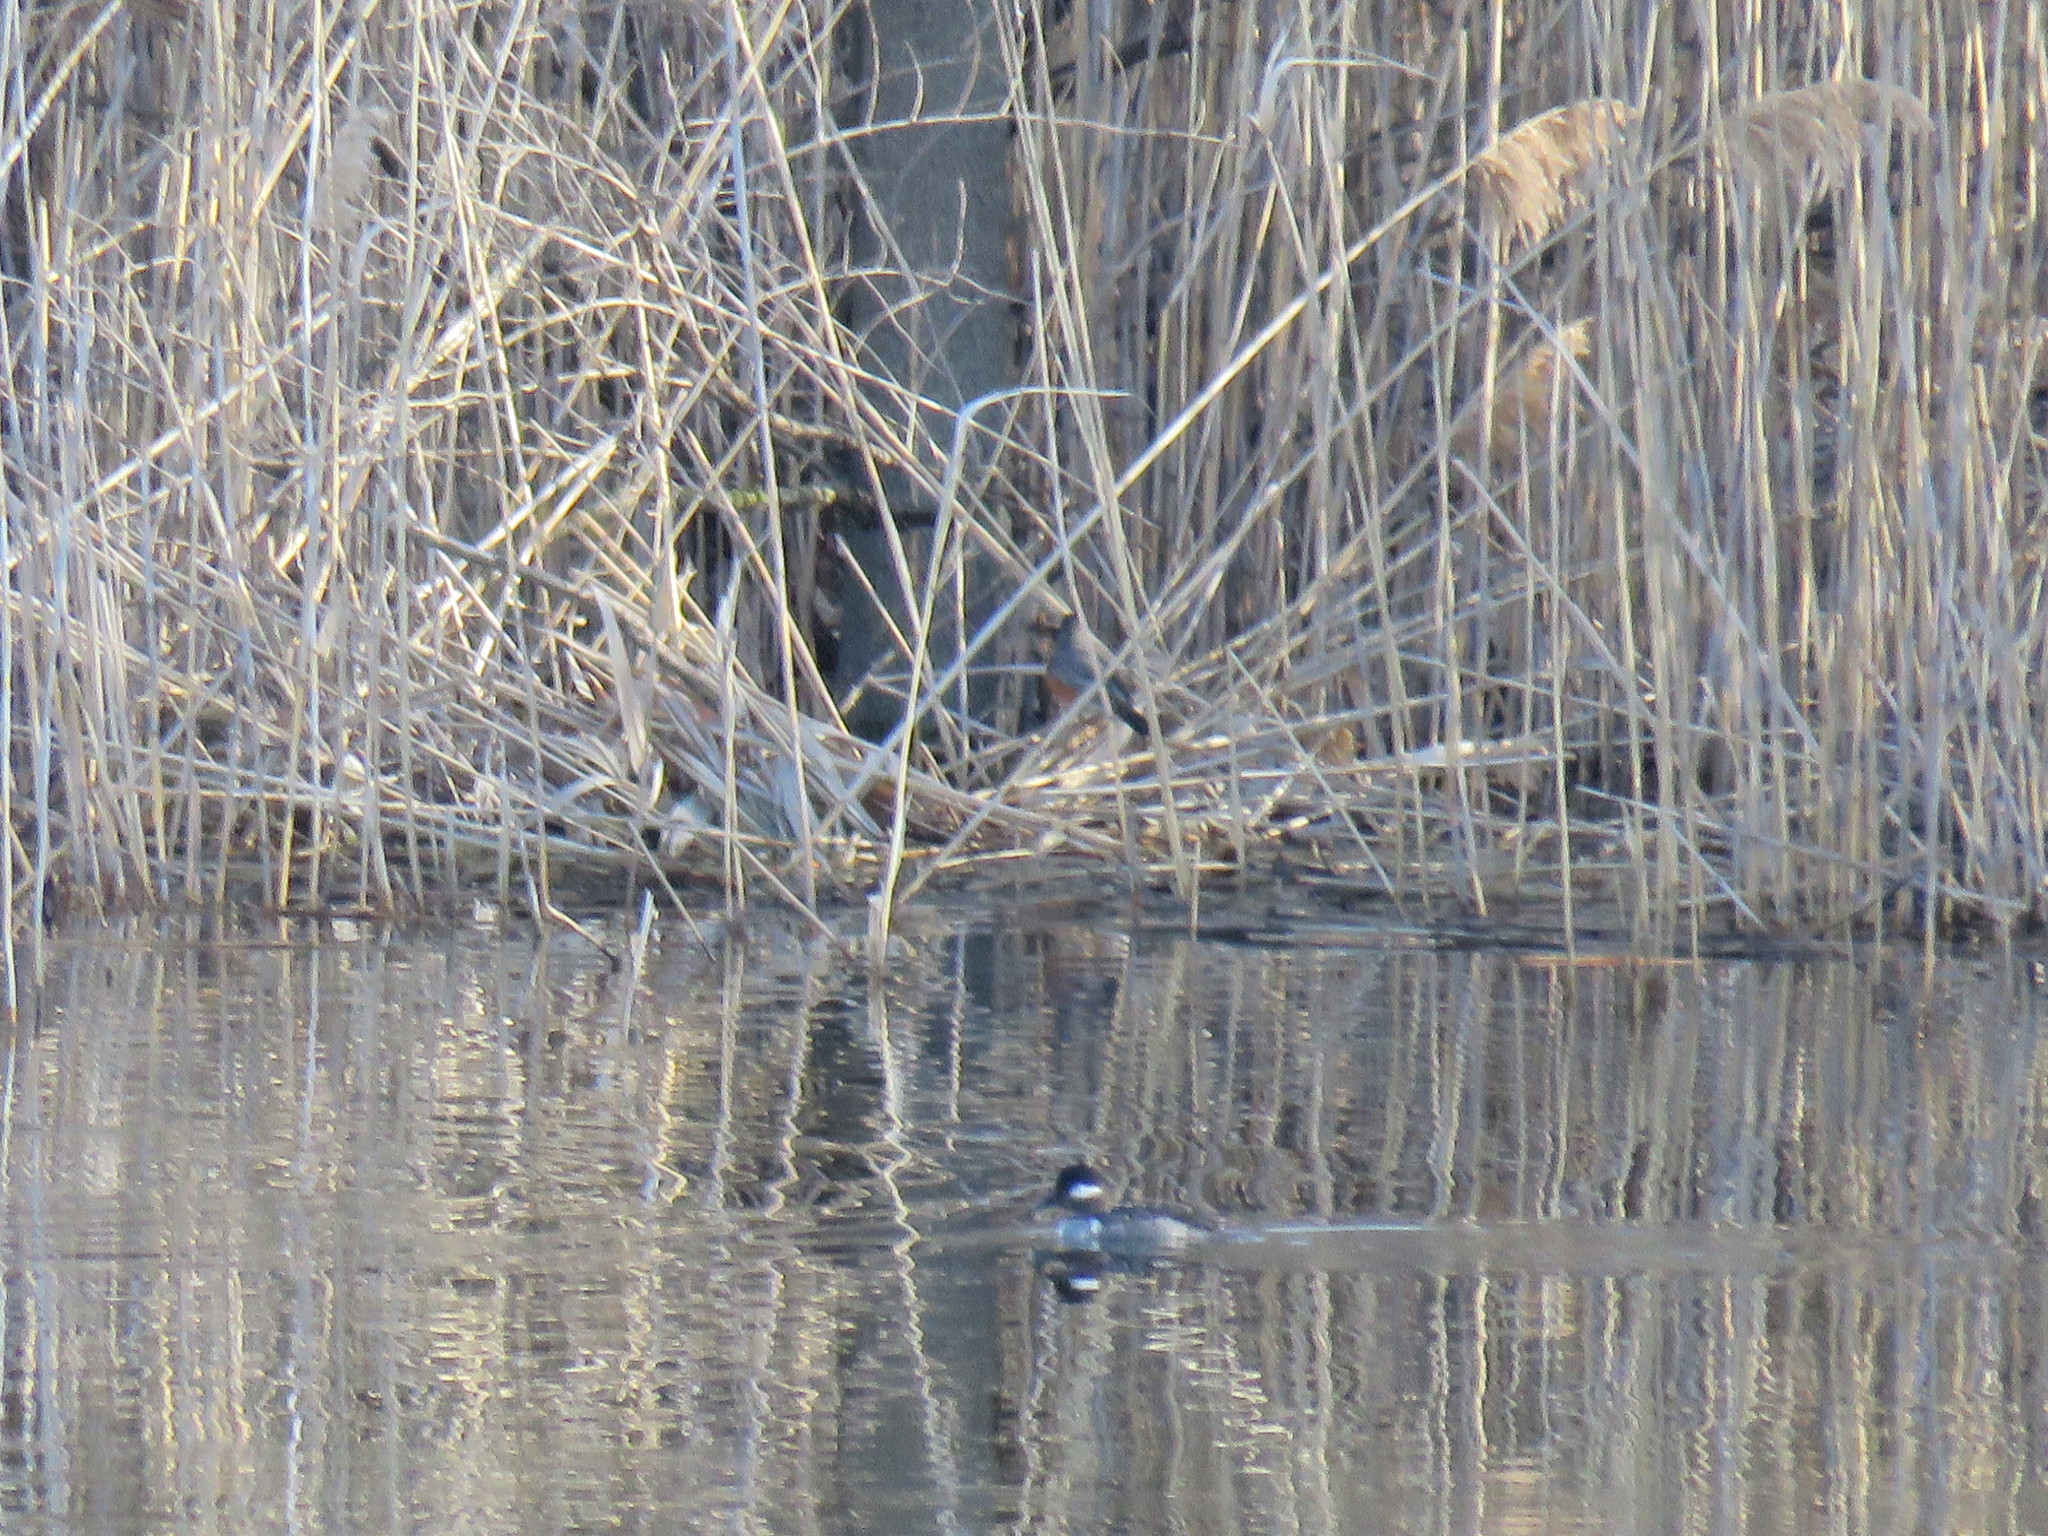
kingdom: Animalia
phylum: Chordata
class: Aves
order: Anseriformes
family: Anatidae
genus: Bucephala
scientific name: Bucephala albeola
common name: Bufflehead
